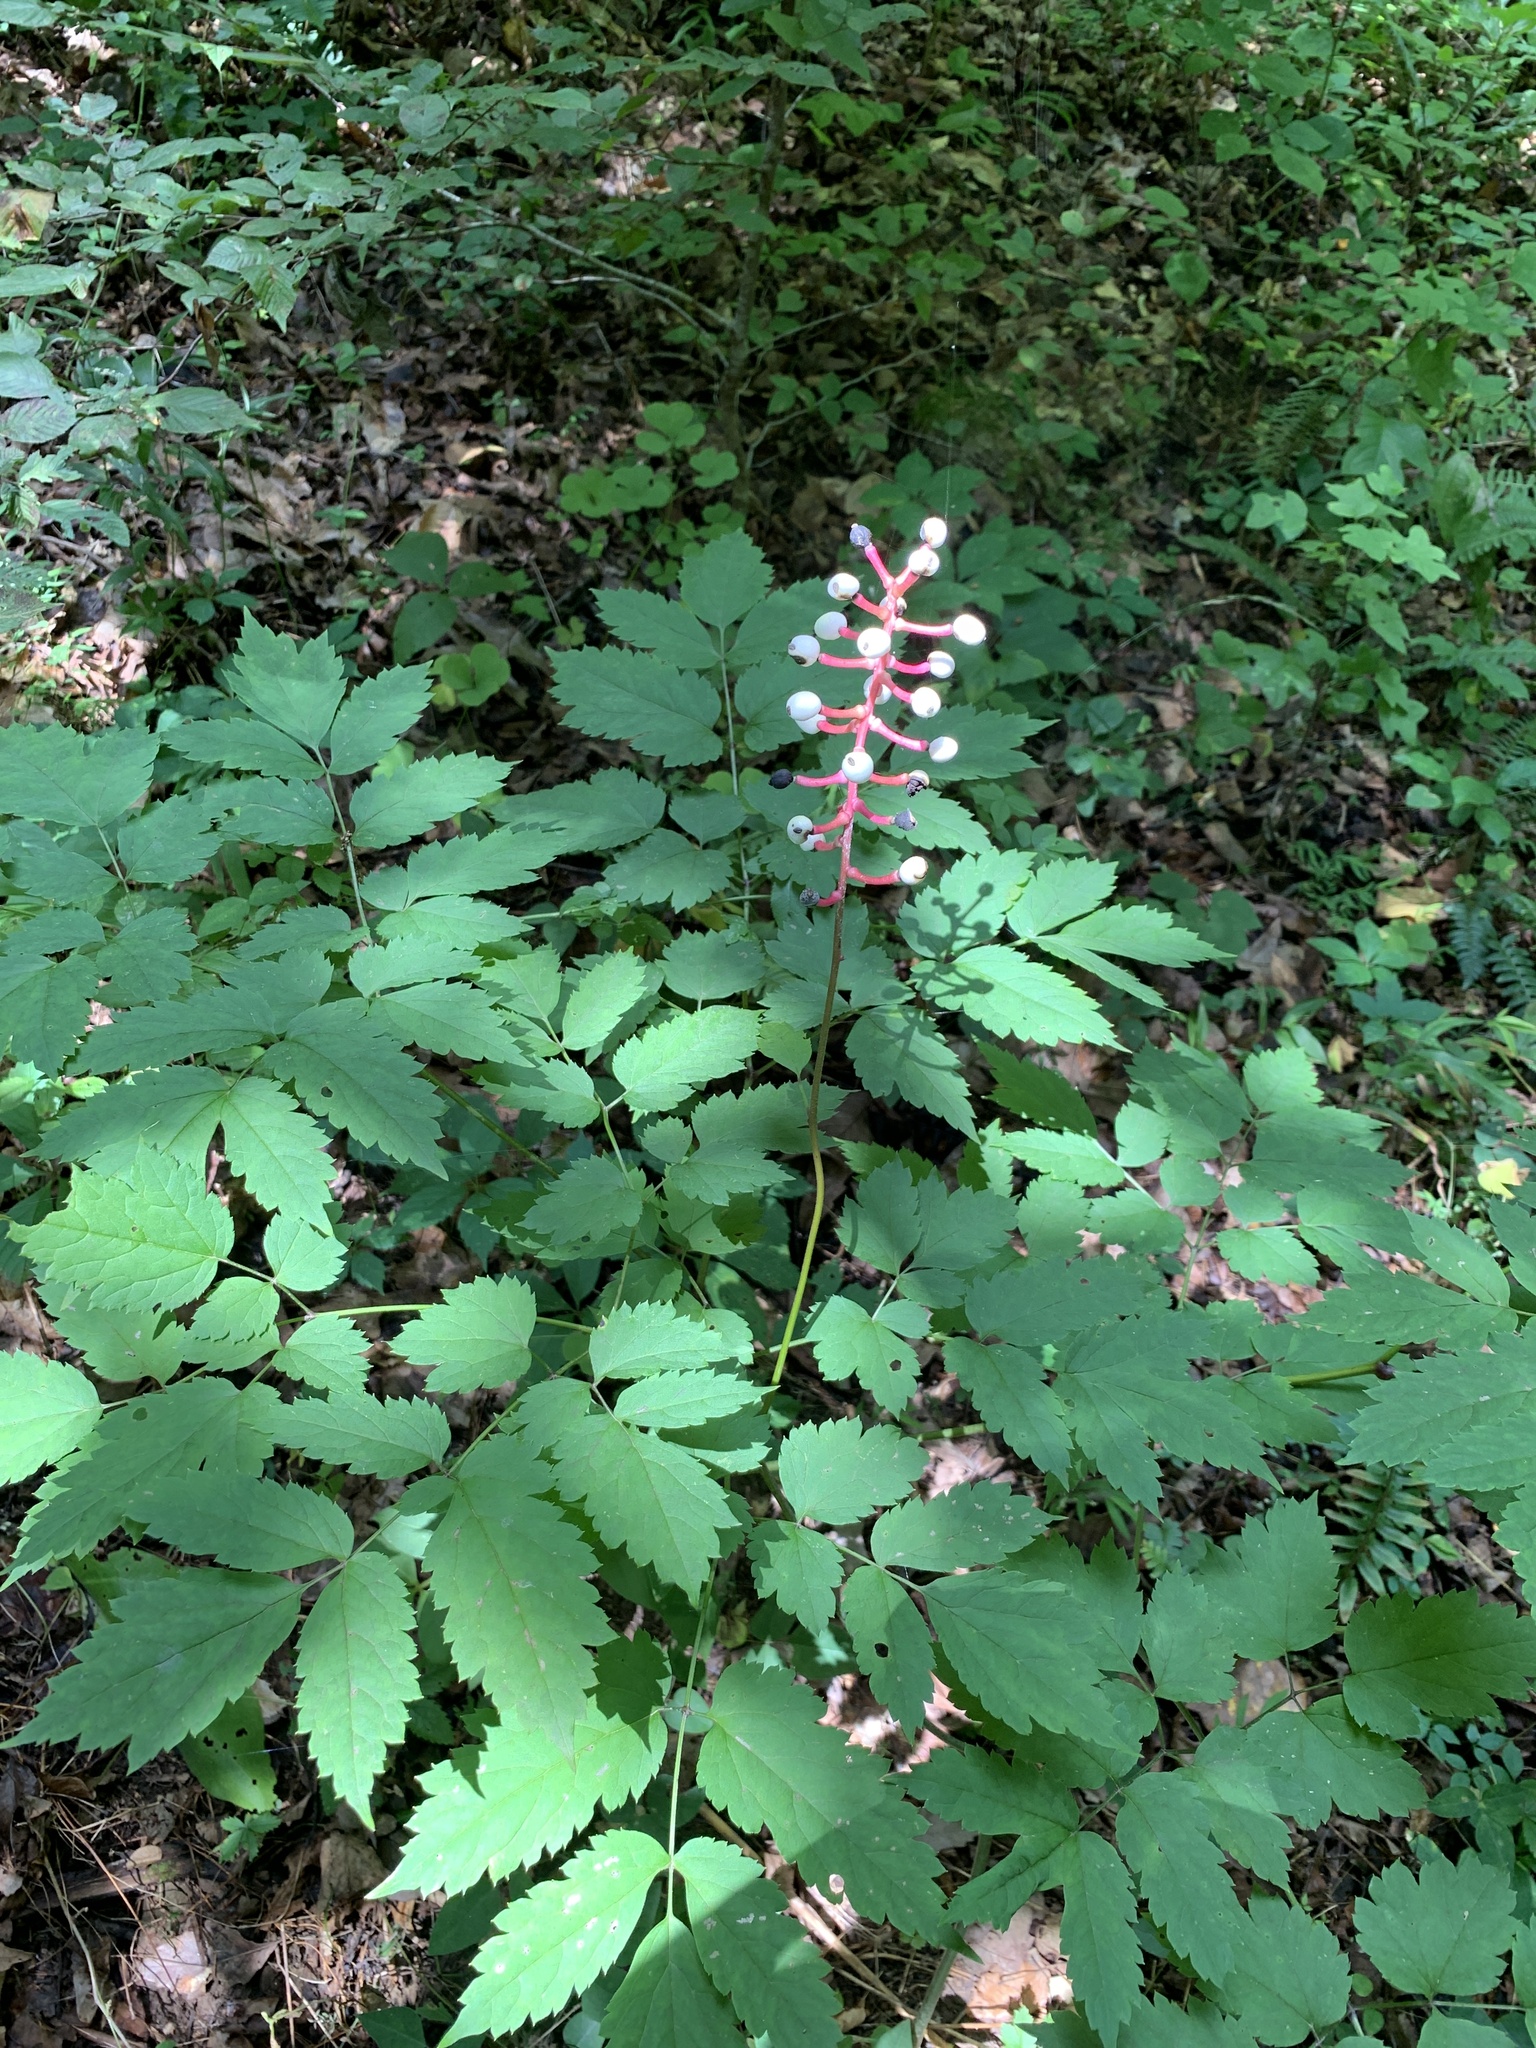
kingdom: Plantae
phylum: Tracheophyta
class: Magnoliopsida
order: Ranunculales
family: Ranunculaceae
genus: Actaea
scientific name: Actaea pachypoda
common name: Doll's-eyes
